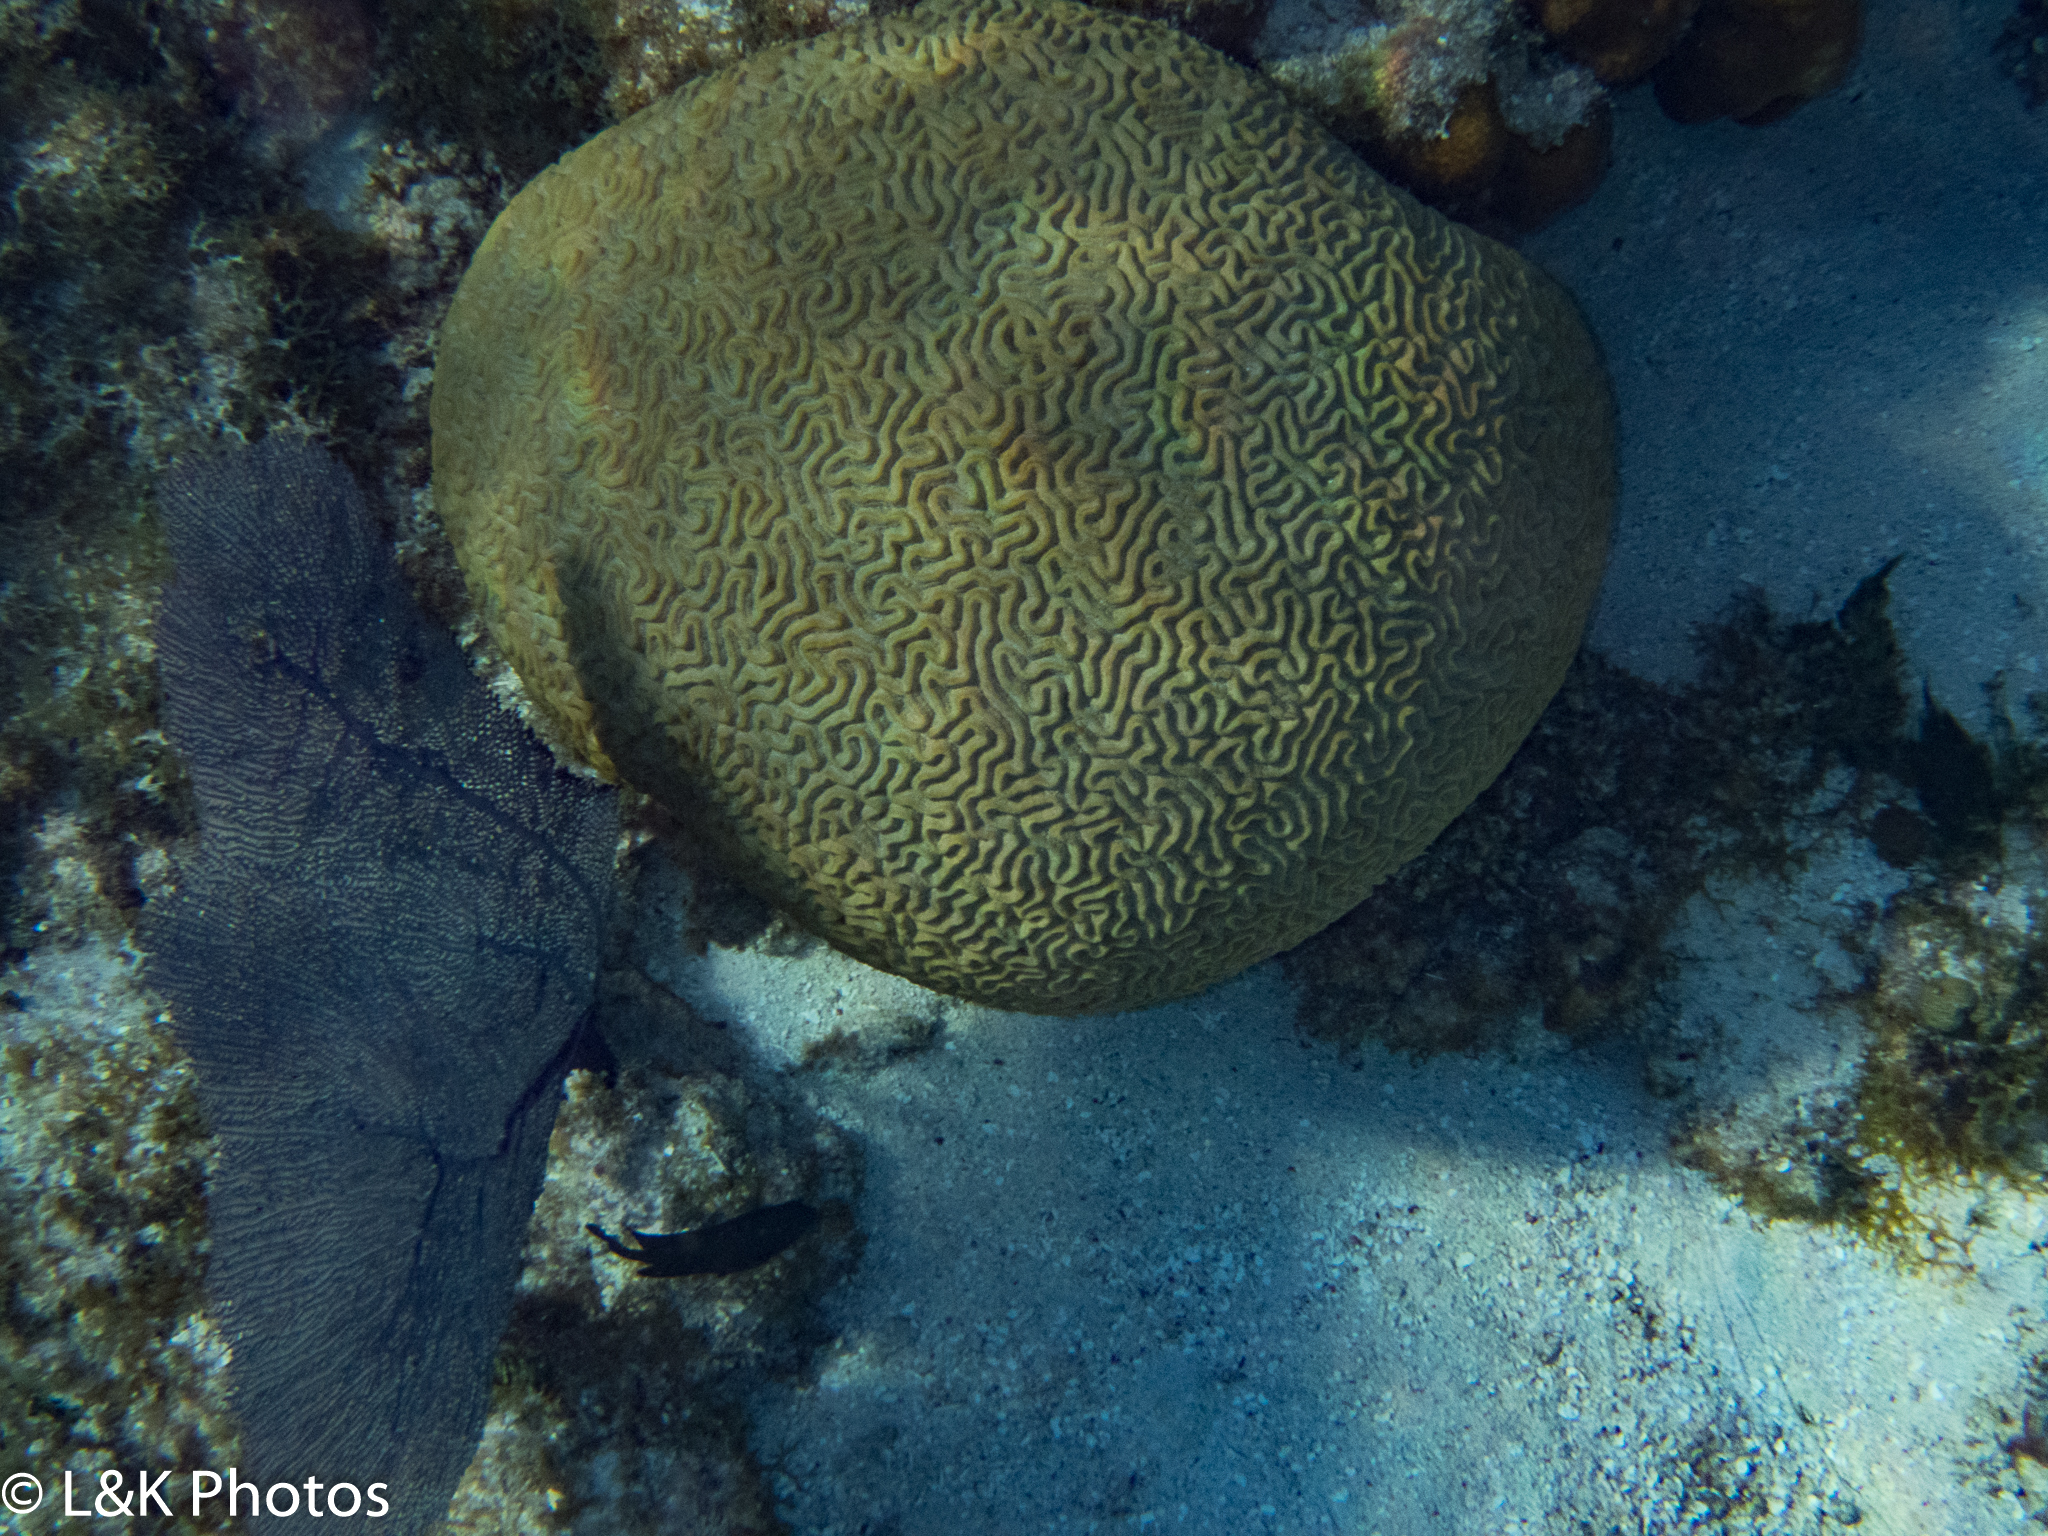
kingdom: Animalia
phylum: Cnidaria
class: Anthozoa
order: Scleractinia
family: Faviidae
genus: Pseudodiploria
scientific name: Pseudodiploria strigosa
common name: Symmetrical brain coral
